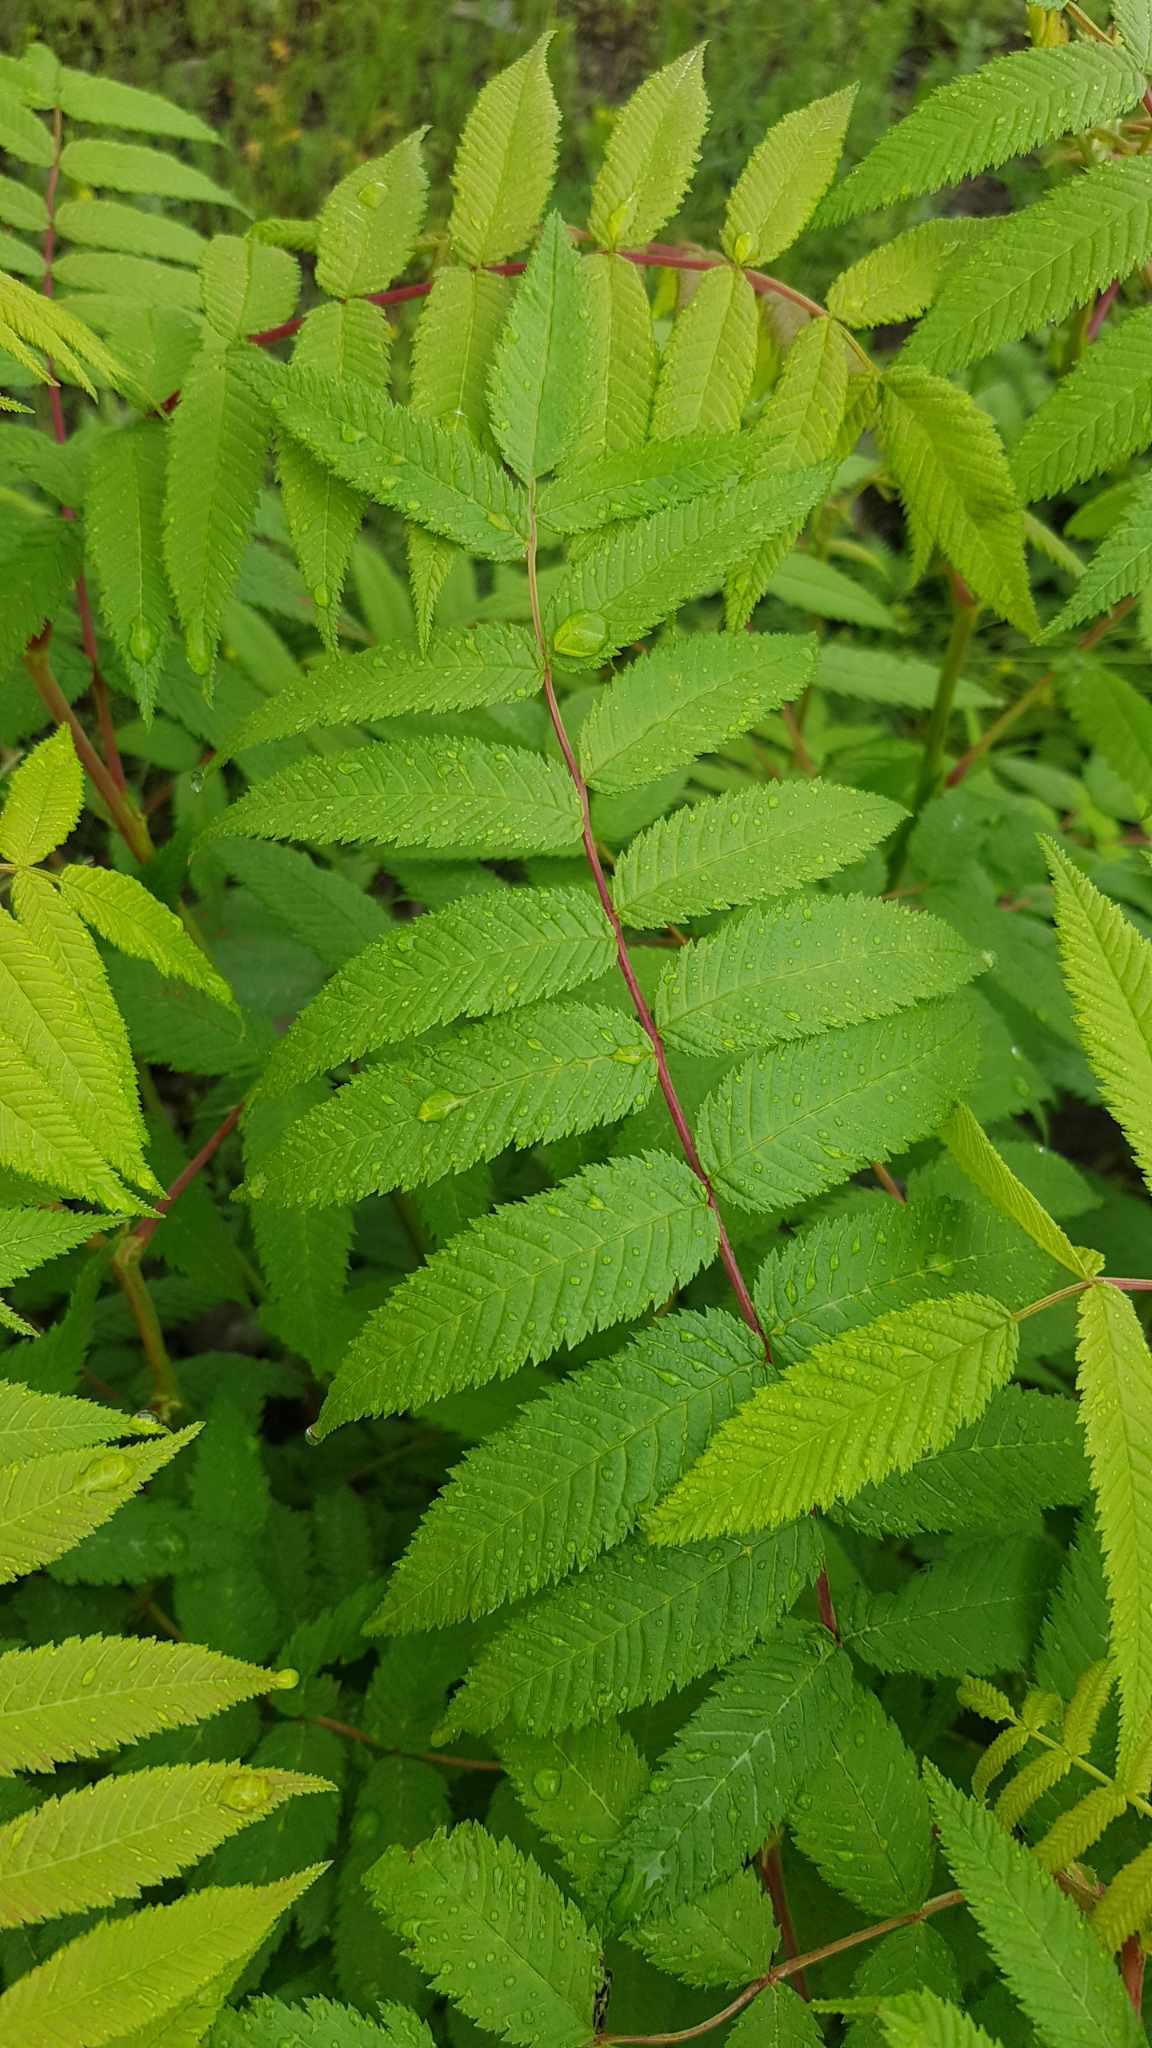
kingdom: Plantae
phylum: Tracheophyta
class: Magnoliopsida
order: Rosales
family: Rosaceae
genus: Sorbaria
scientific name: Sorbaria sorbifolia
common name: False spiraea
